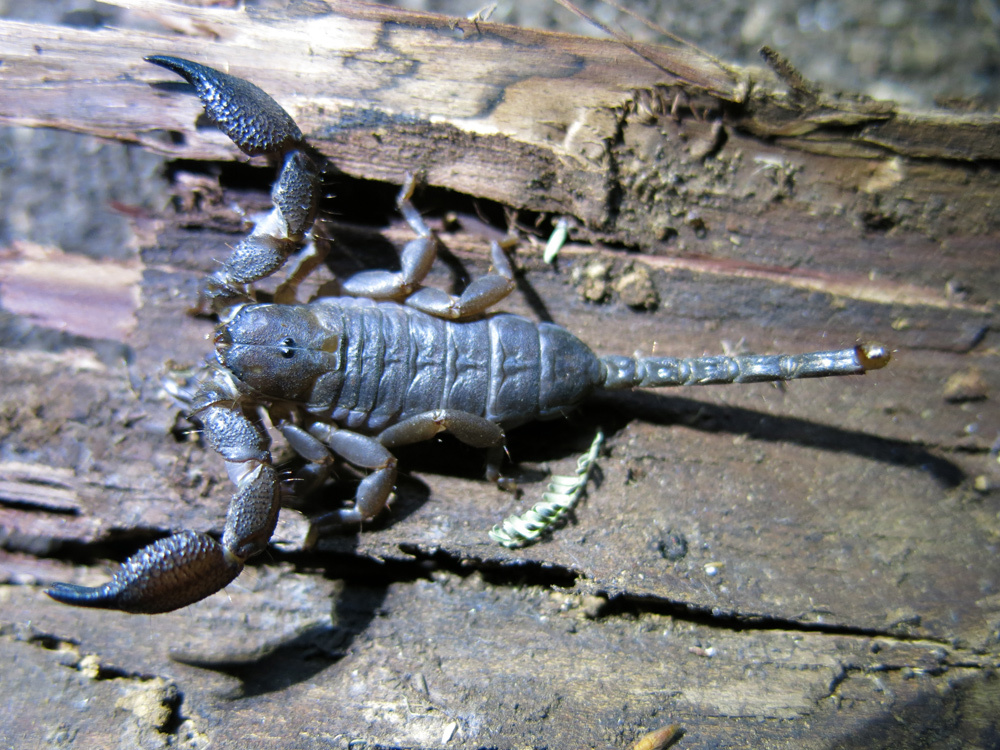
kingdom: Animalia
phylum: Arthropoda
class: Arachnida
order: Scorpiones
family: Hormuridae
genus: Opisthacanthus
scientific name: Opisthacanthus asper
